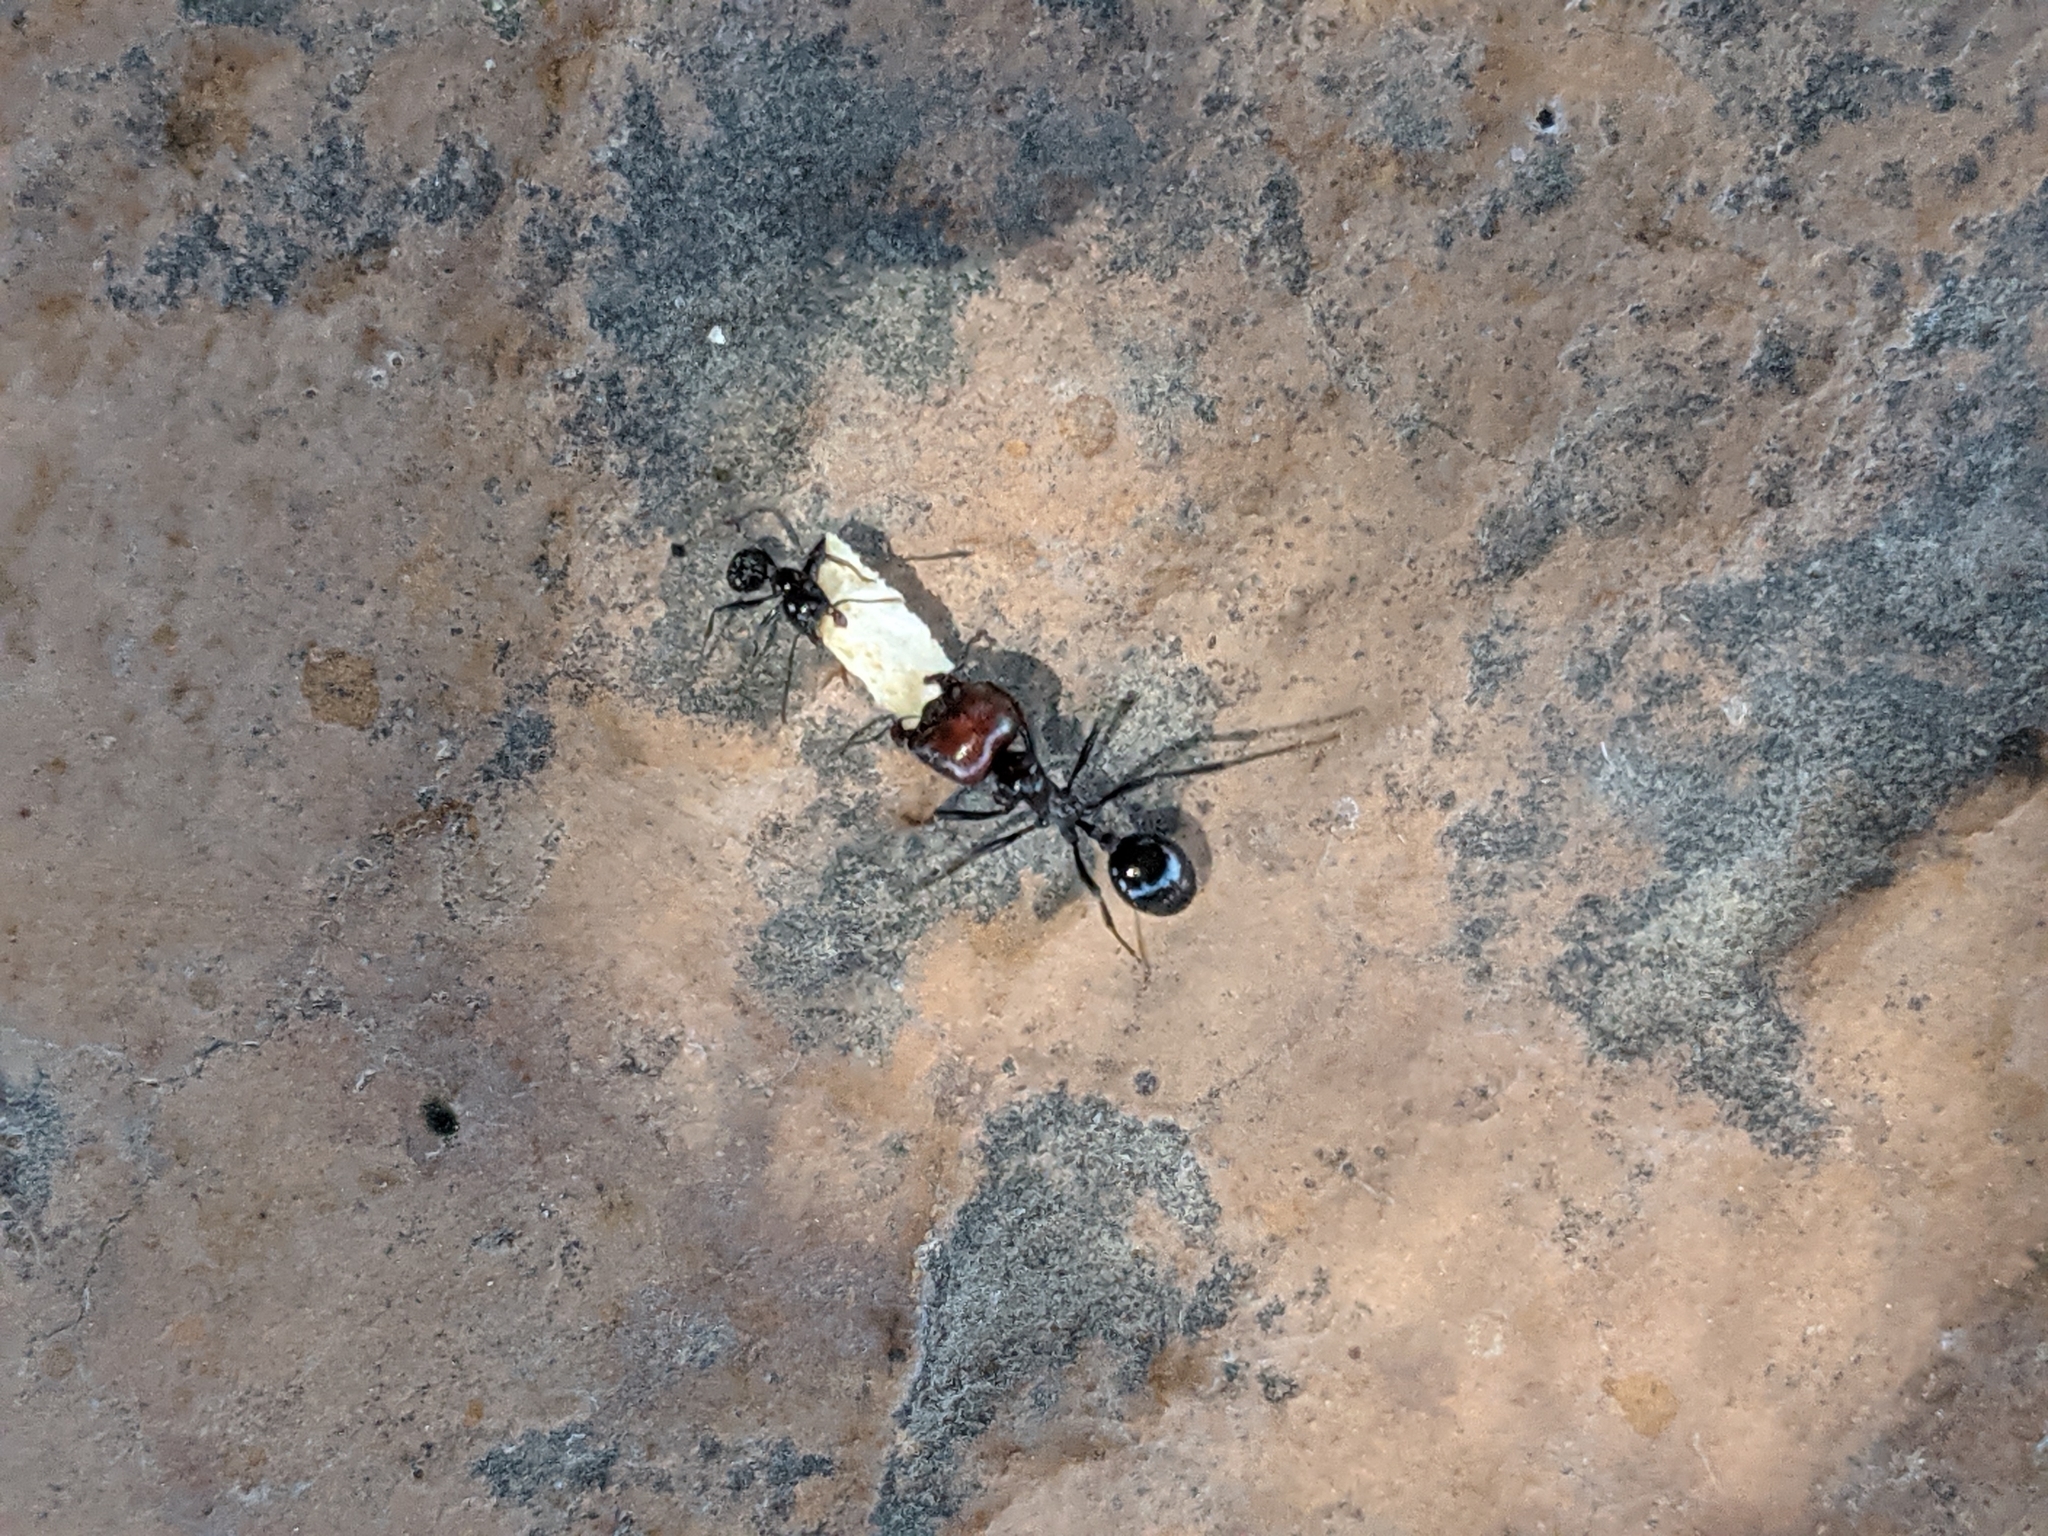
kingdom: Animalia
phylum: Arthropoda
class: Insecta
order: Hymenoptera
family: Formicidae
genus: Messor
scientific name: Messor barbarus
